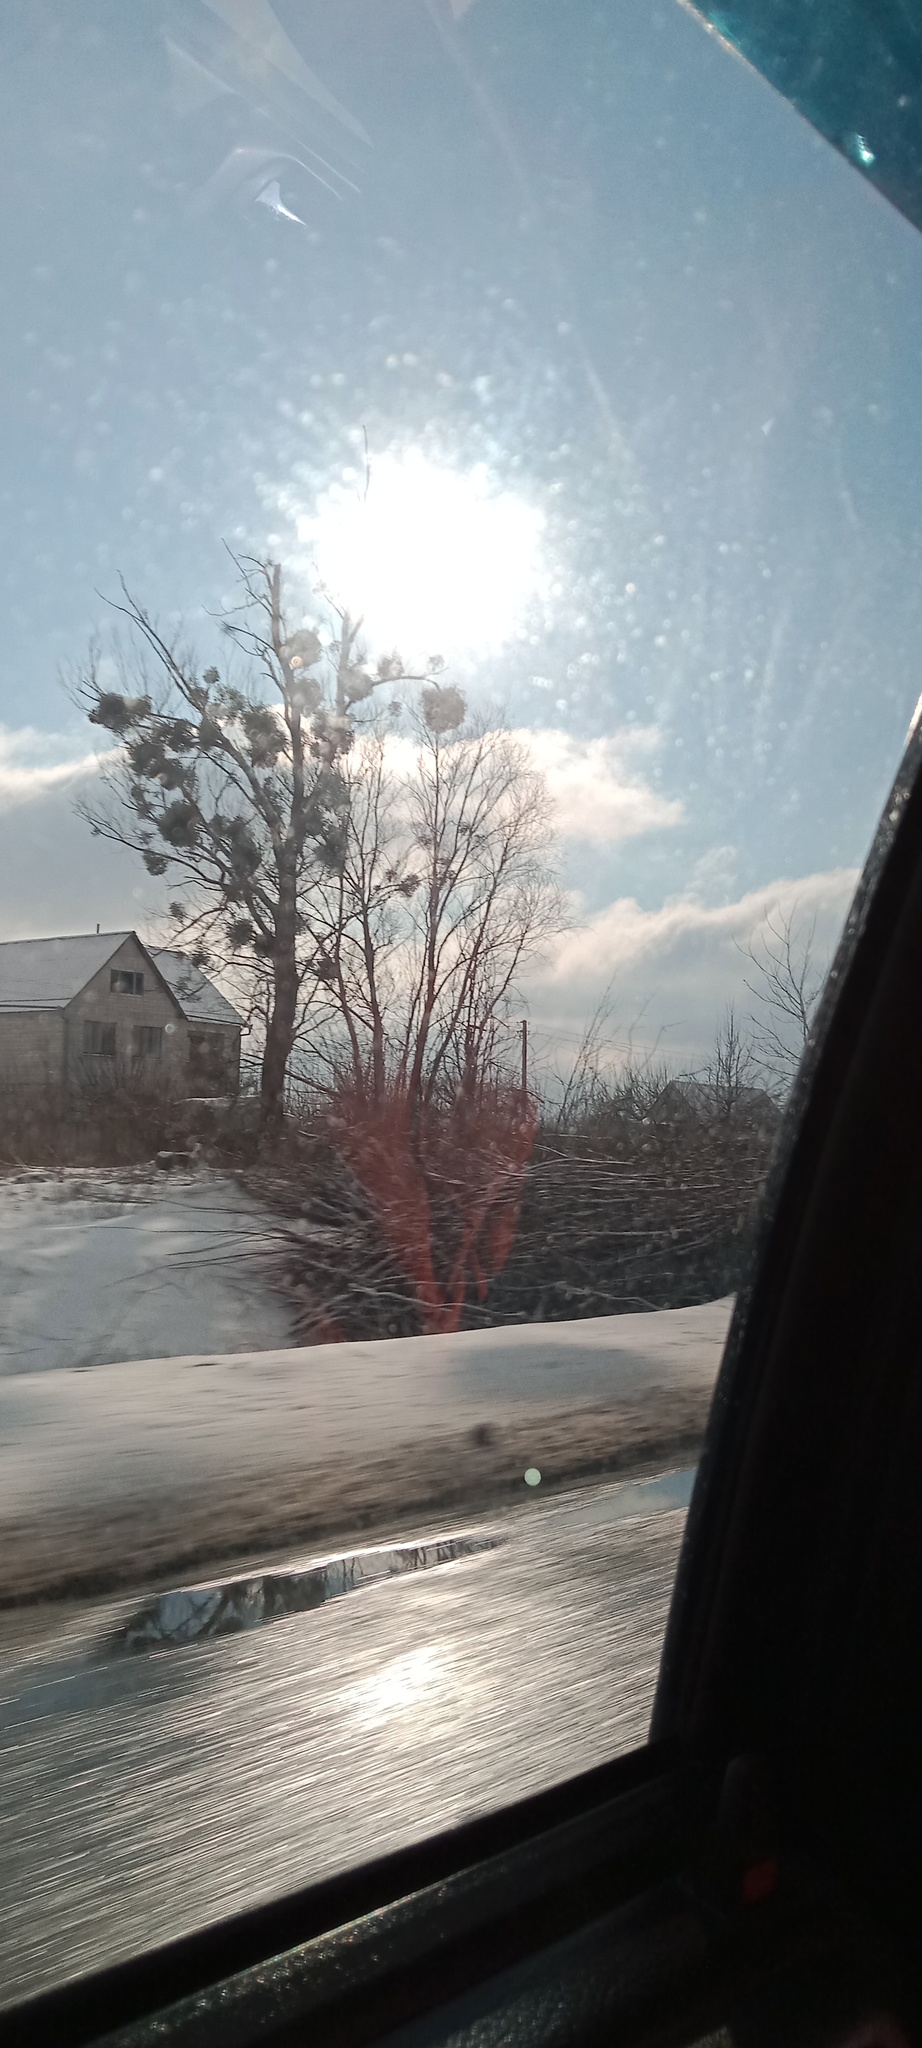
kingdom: Plantae
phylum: Tracheophyta
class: Magnoliopsida
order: Santalales
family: Viscaceae
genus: Viscum
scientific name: Viscum album
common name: Mistletoe
